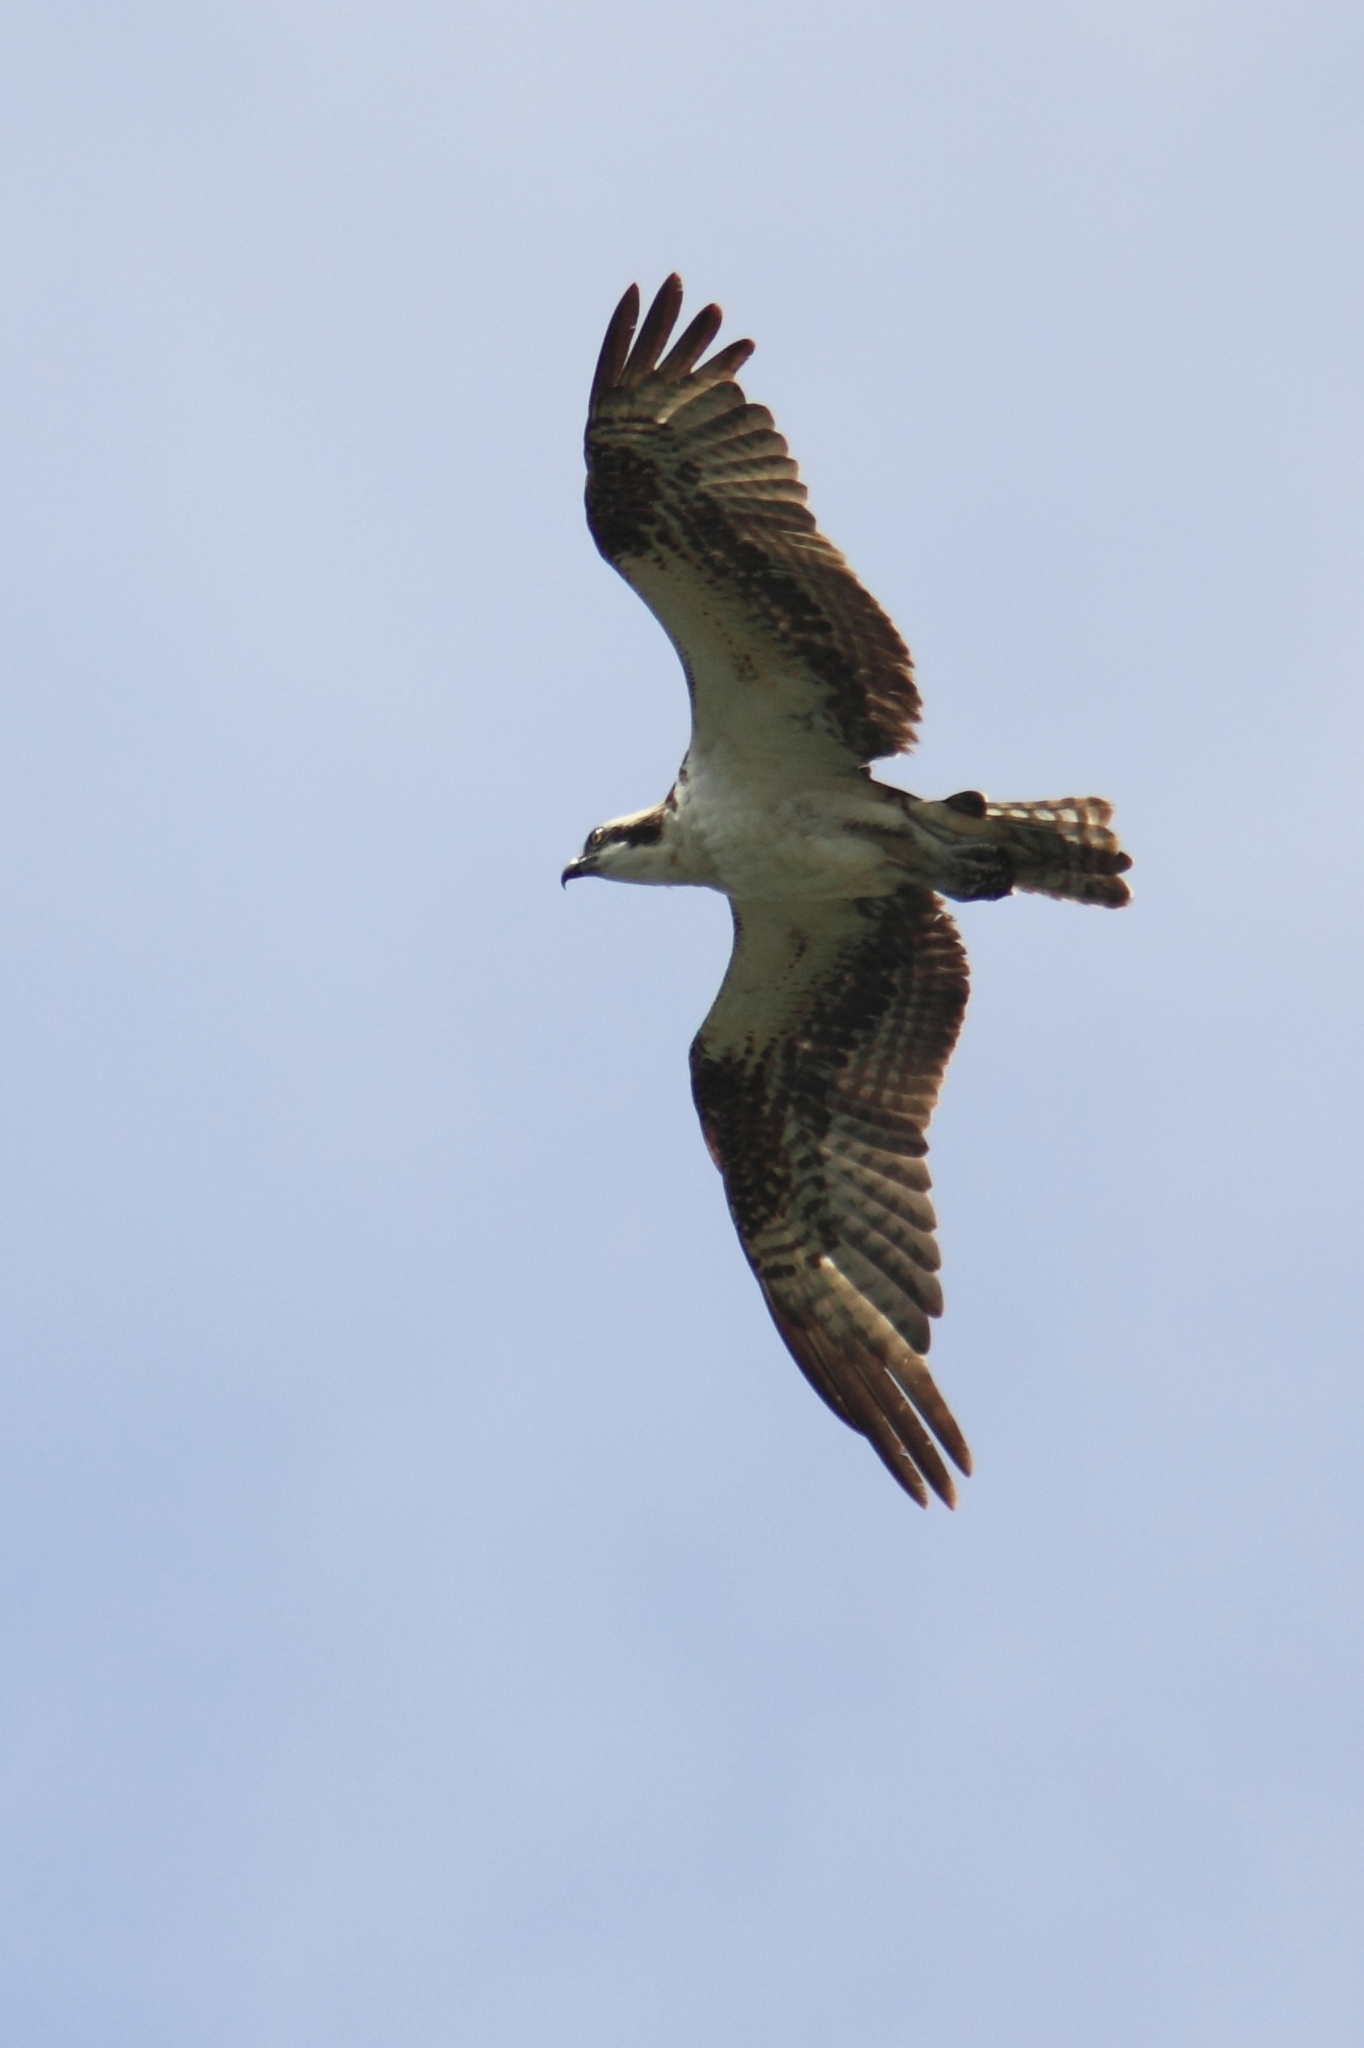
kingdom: Animalia
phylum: Chordata
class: Aves
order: Accipitriformes
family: Pandionidae
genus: Pandion
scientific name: Pandion haliaetus
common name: Osprey
